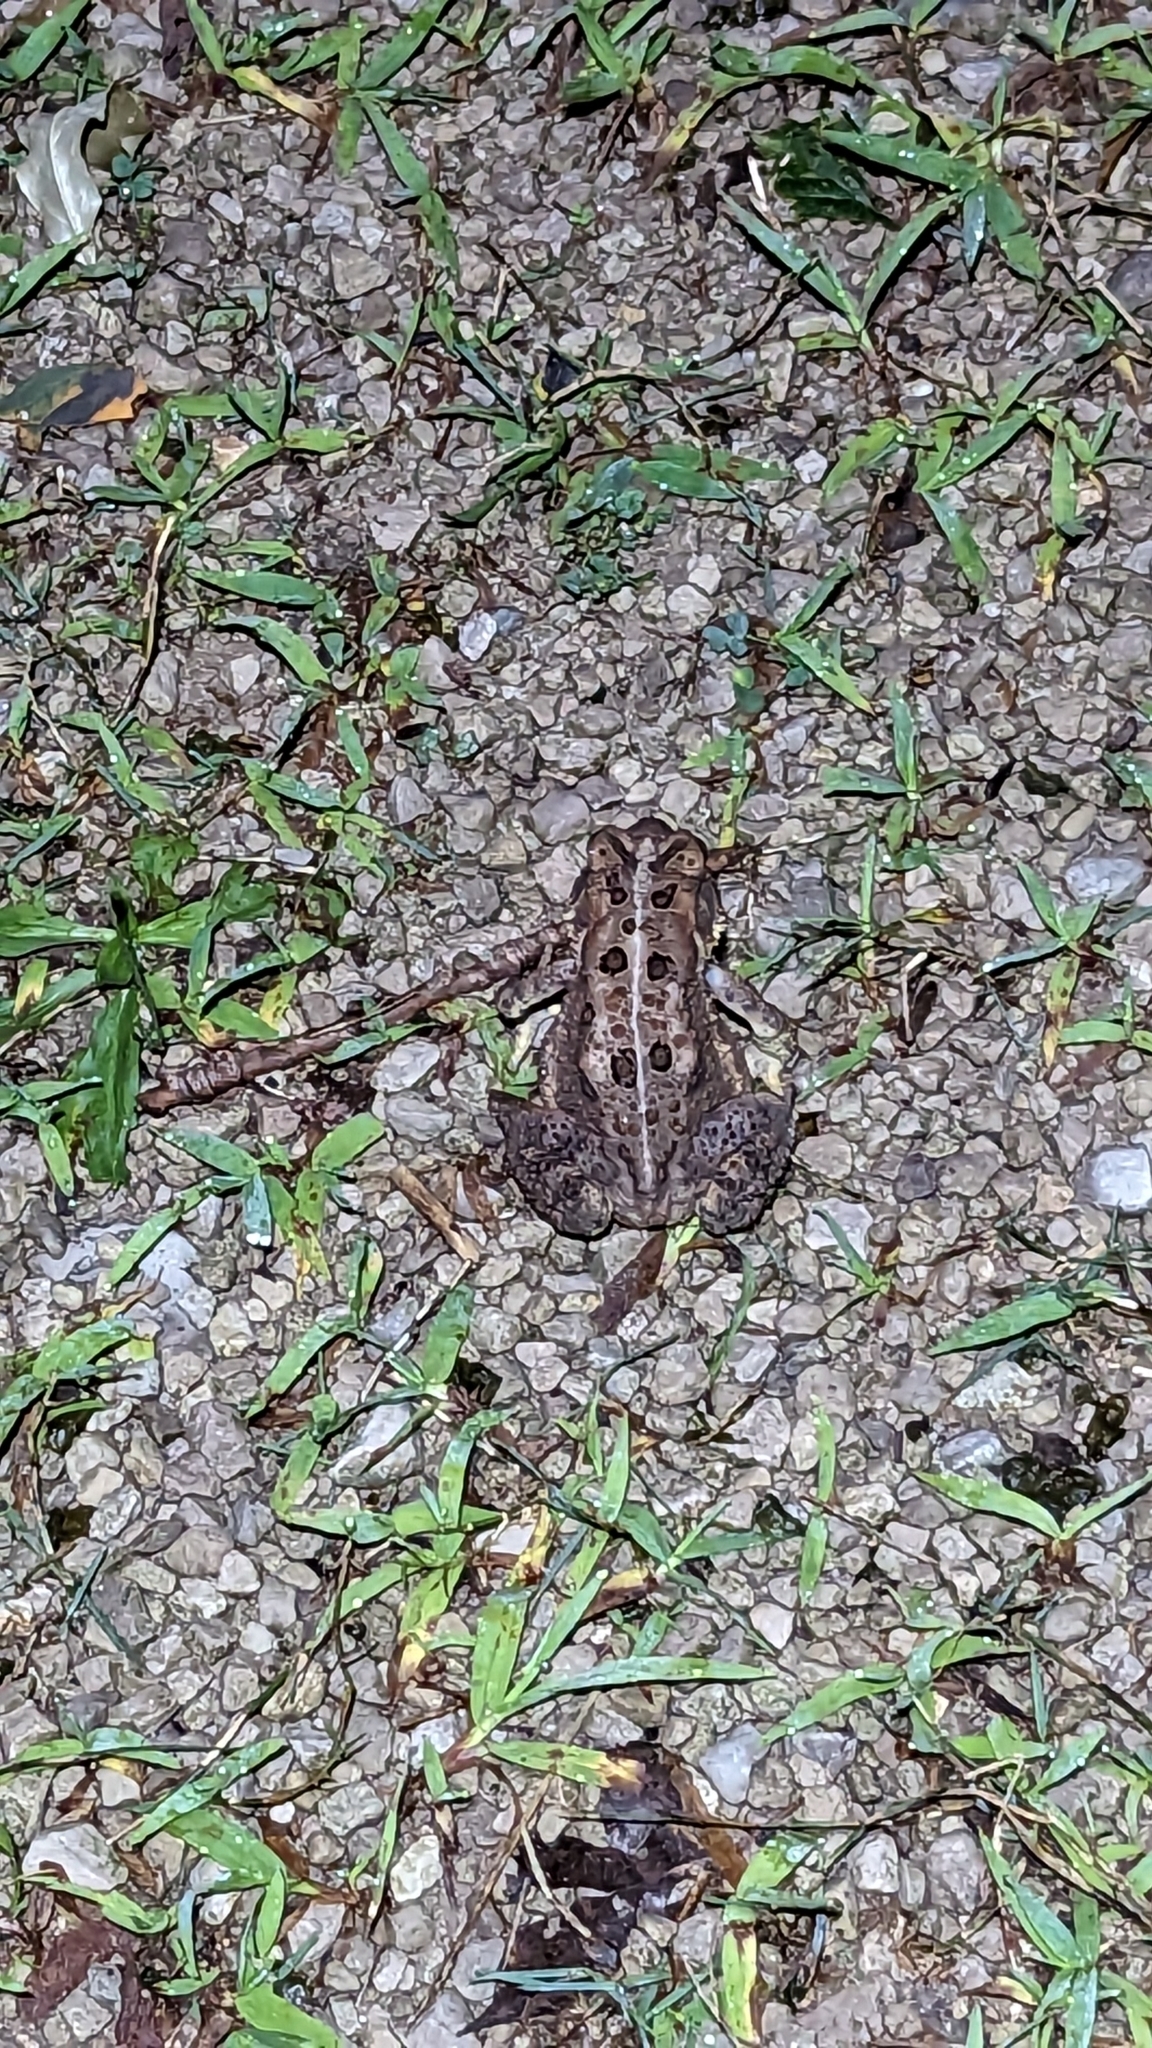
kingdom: Animalia
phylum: Chordata
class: Amphibia
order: Anura
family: Bufonidae
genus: Anaxyrus
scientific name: Anaxyrus americanus
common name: American toad
